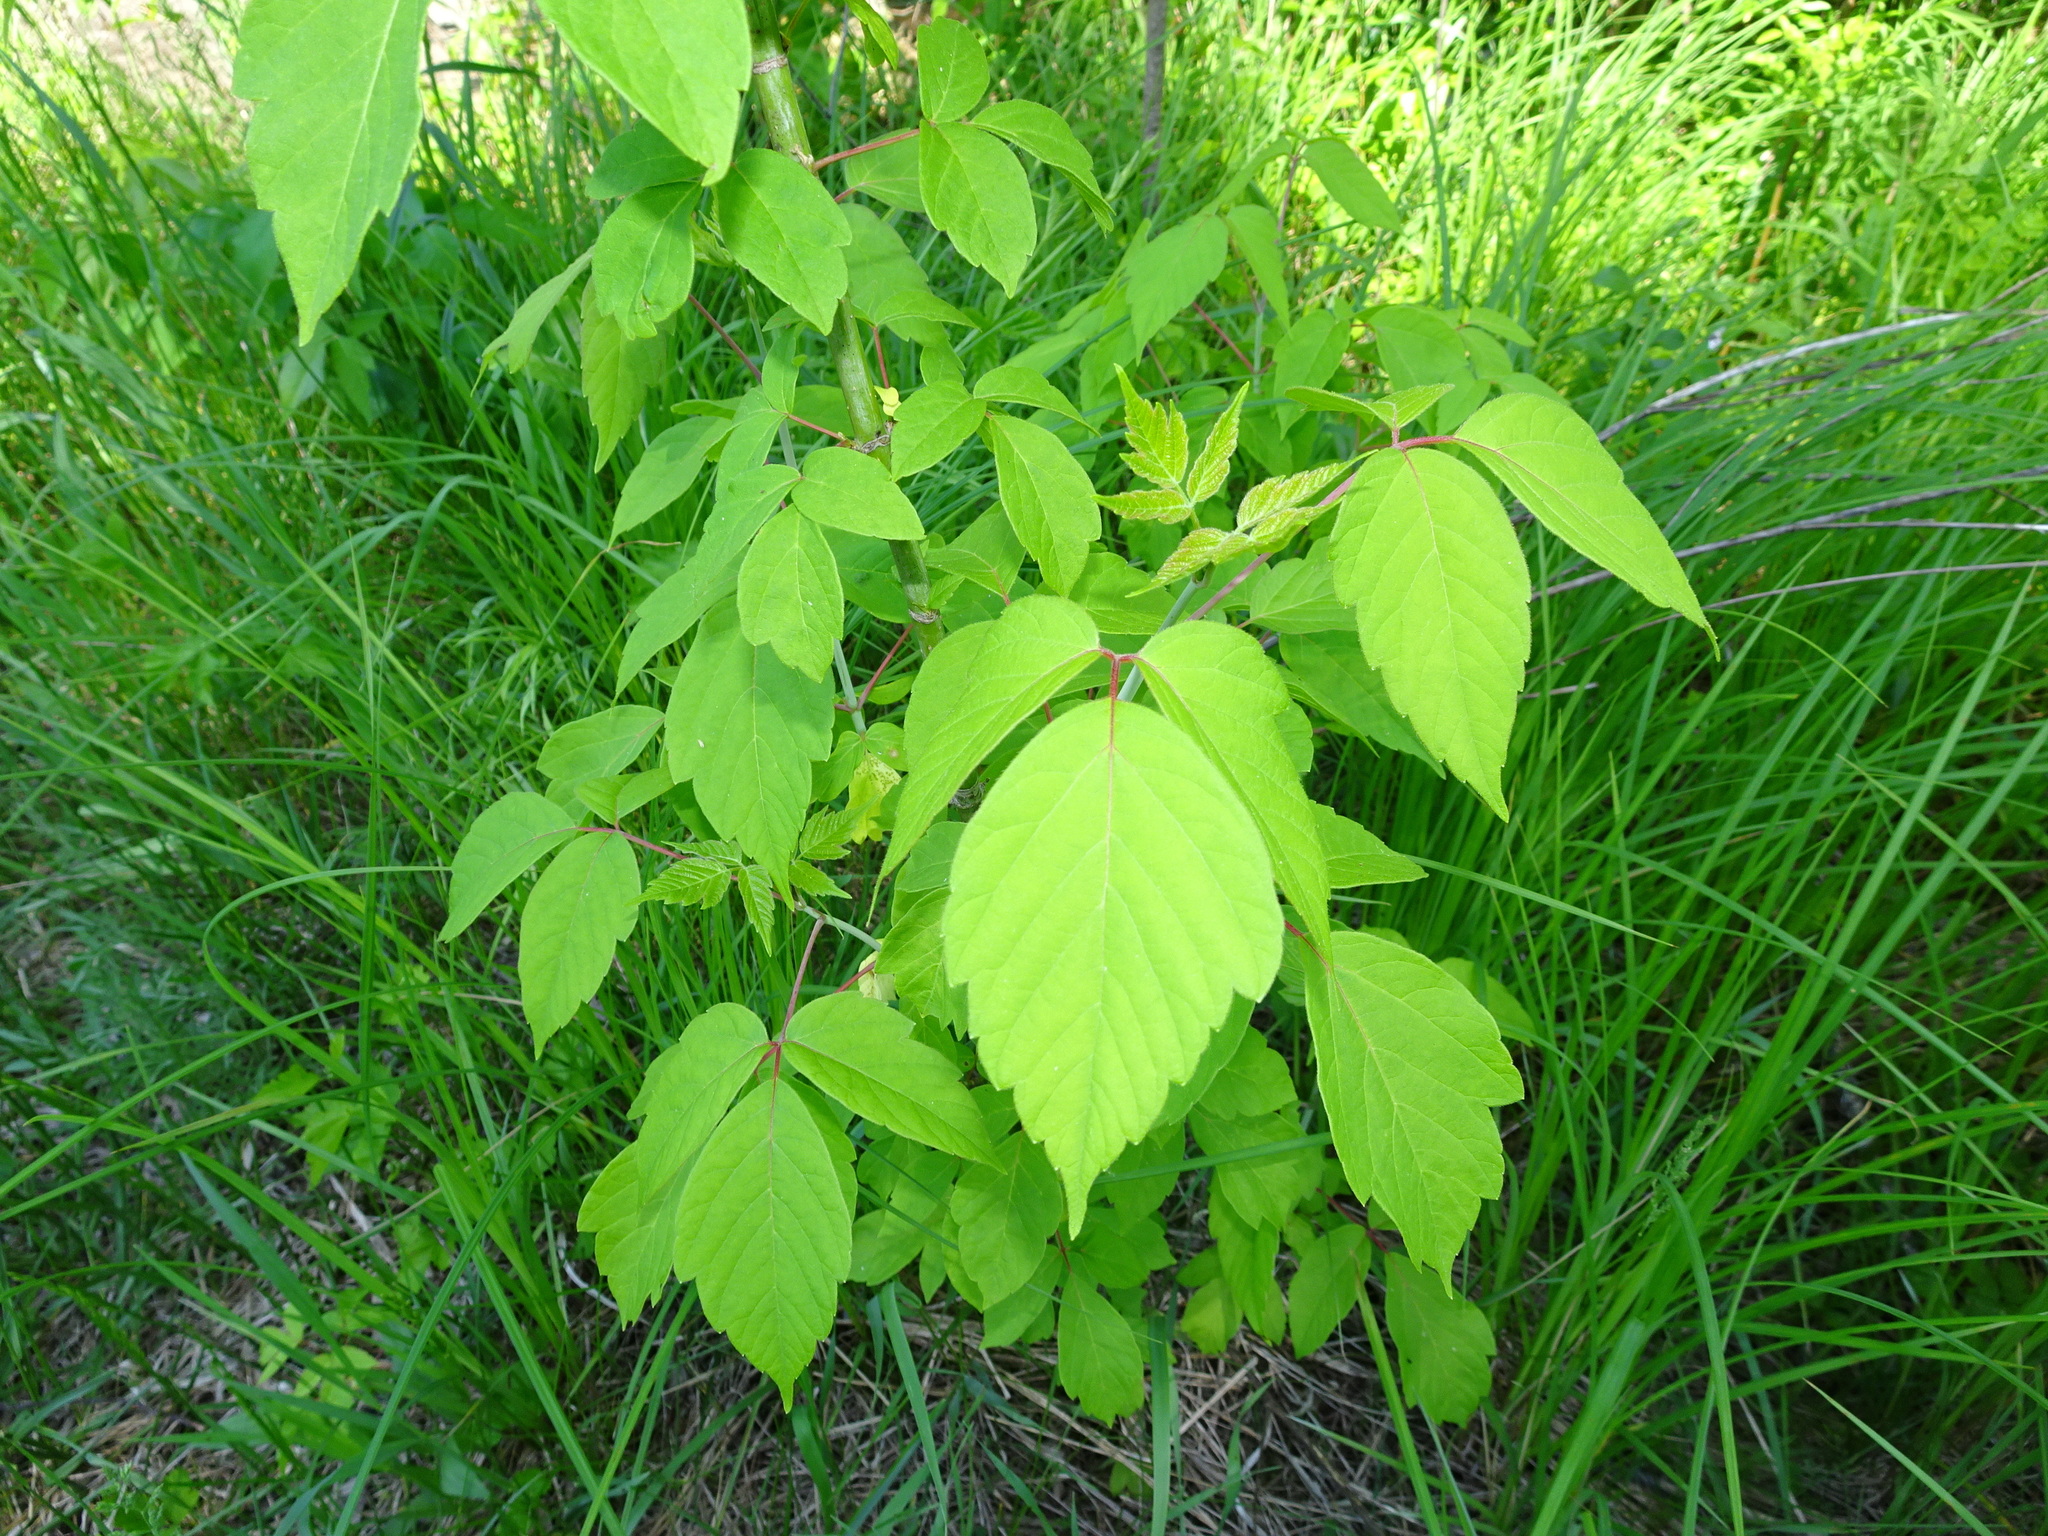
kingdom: Plantae
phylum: Tracheophyta
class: Magnoliopsida
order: Sapindales
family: Sapindaceae
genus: Acer
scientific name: Acer negundo
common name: Ashleaf maple
